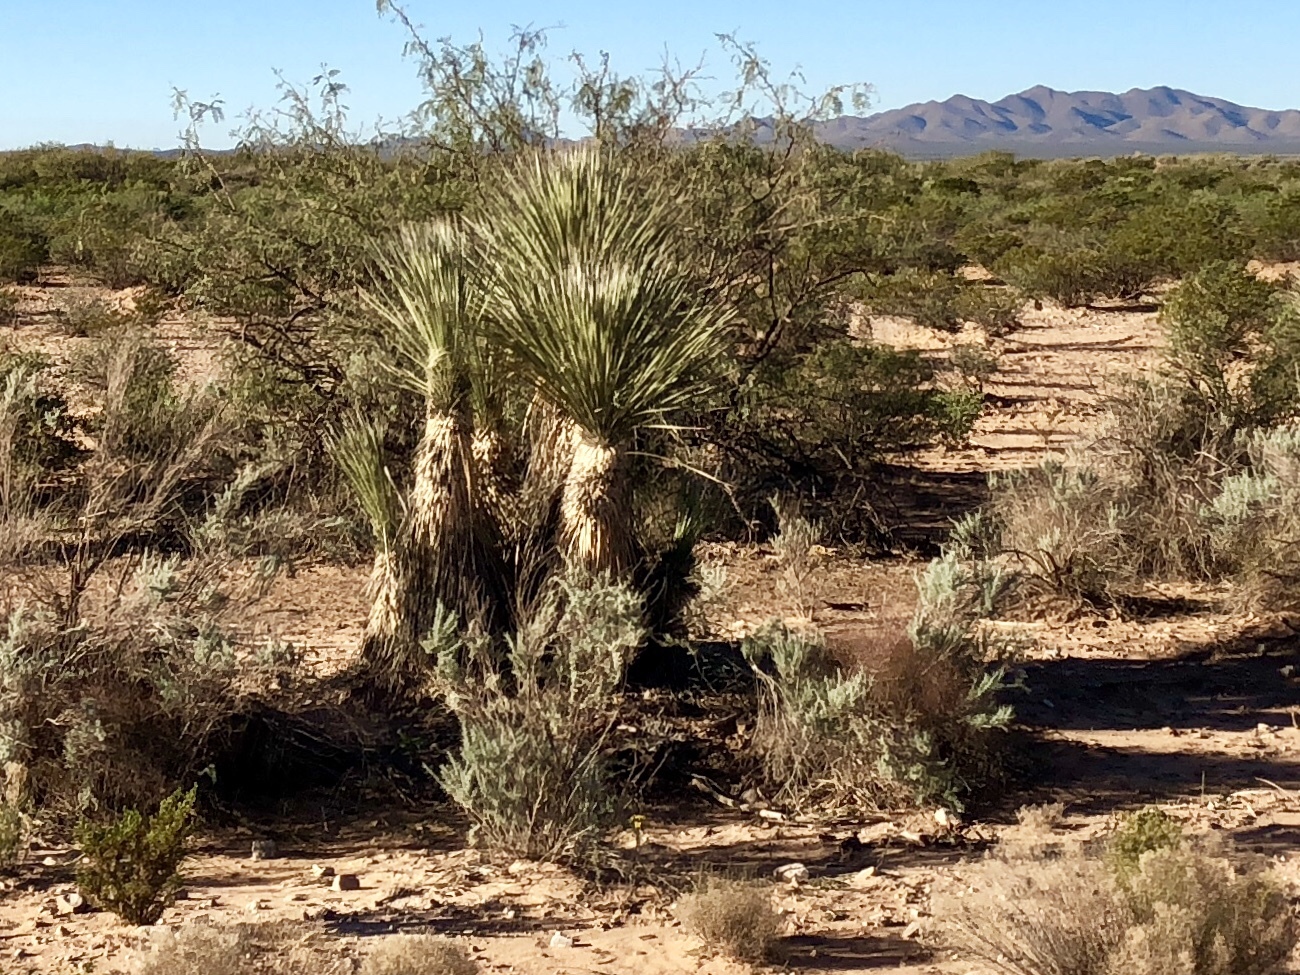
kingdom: Plantae
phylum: Tracheophyta
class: Liliopsida
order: Asparagales
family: Asparagaceae
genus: Yucca
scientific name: Yucca elata
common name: Palmella
